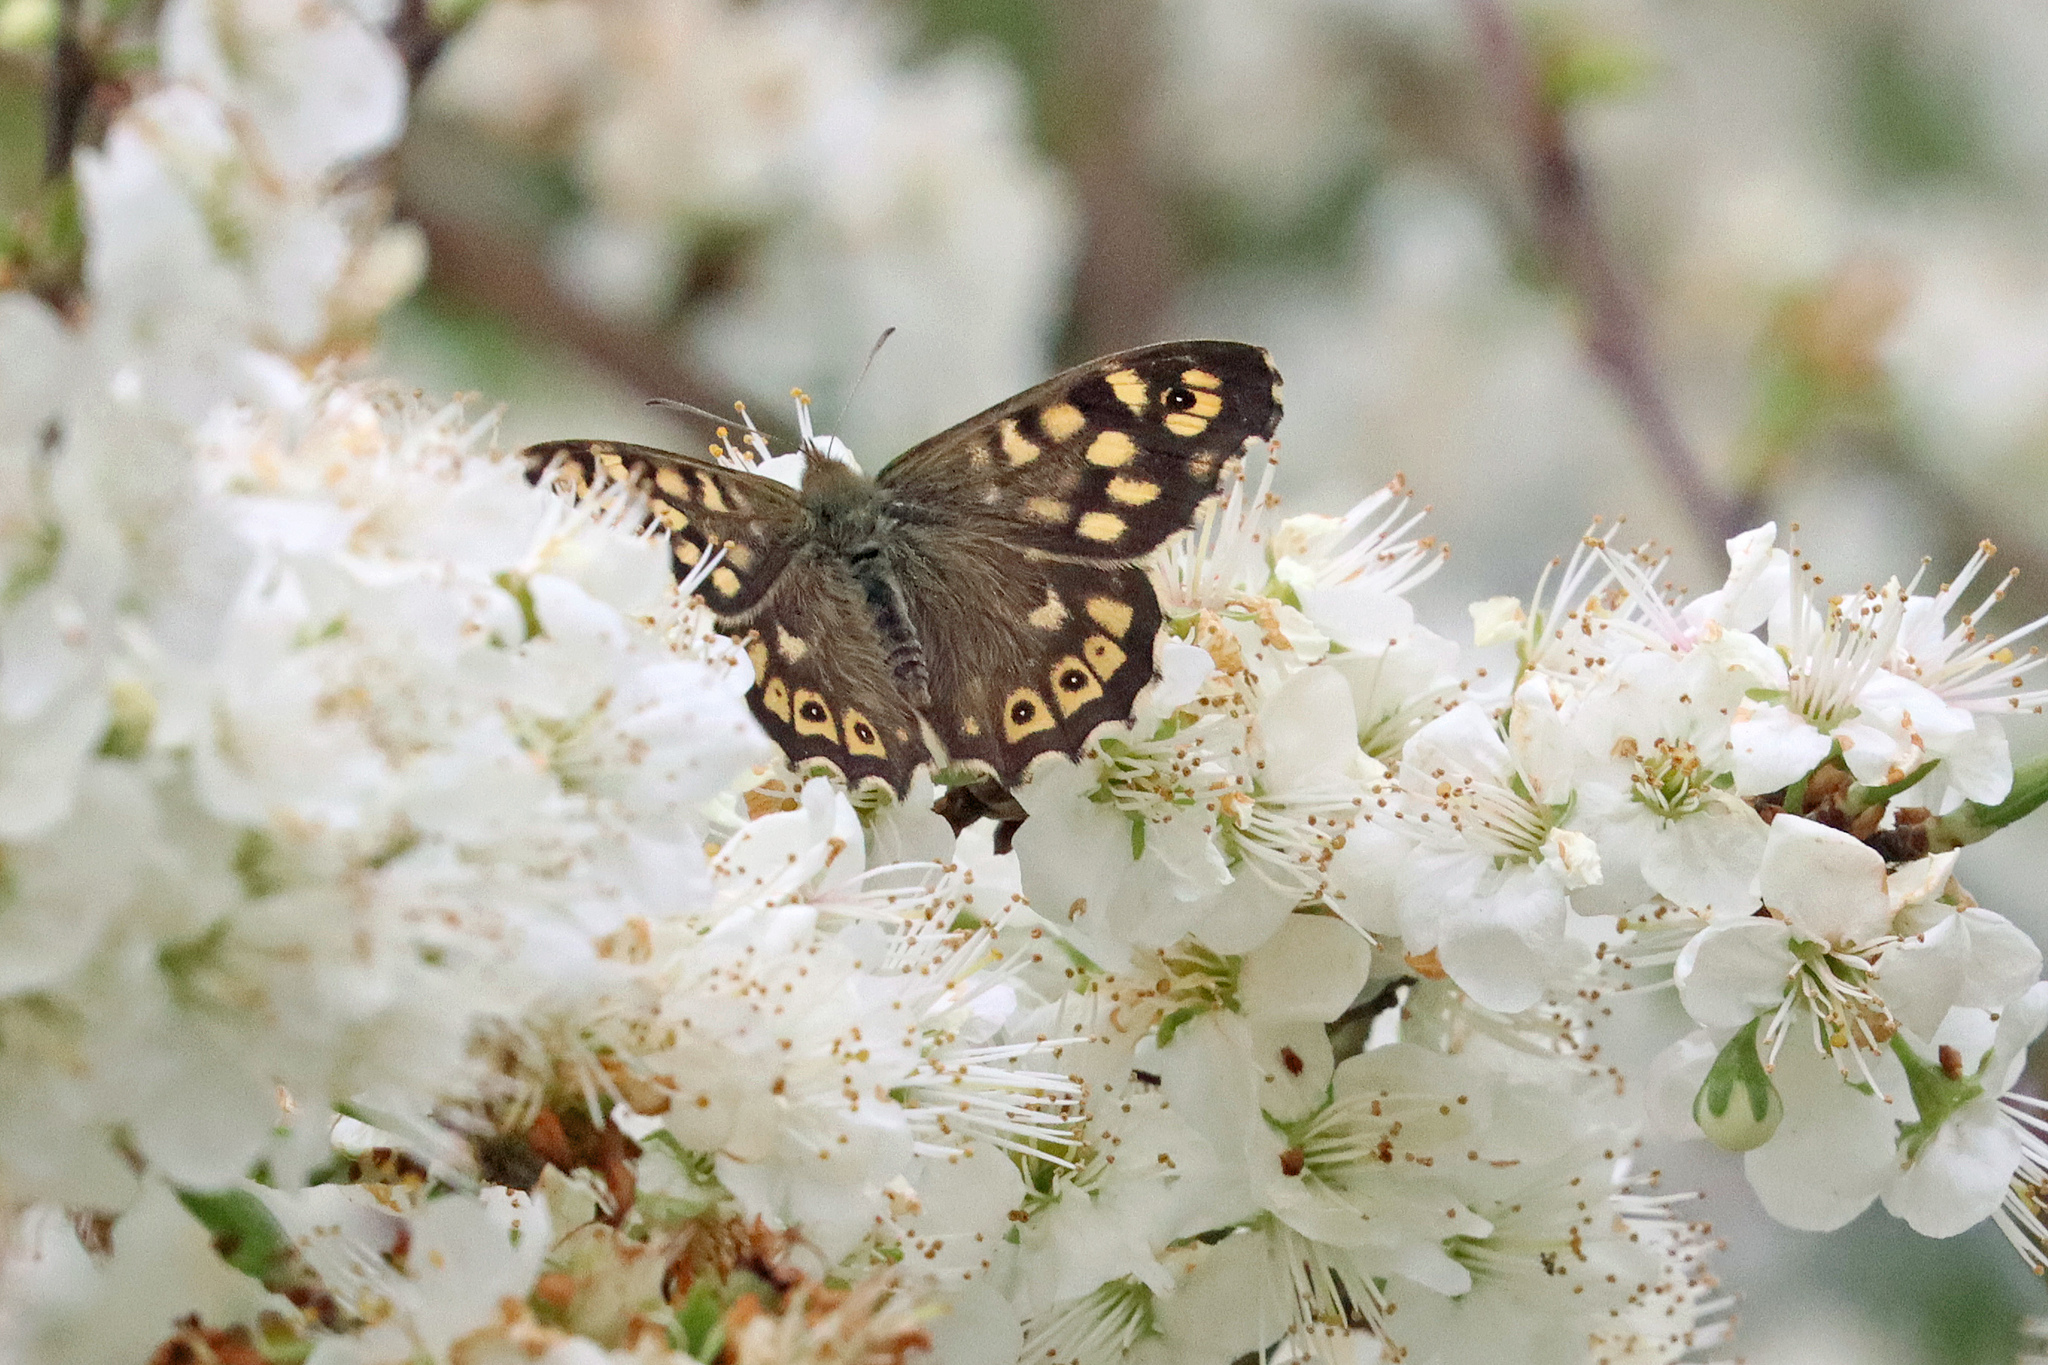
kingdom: Animalia
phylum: Arthropoda
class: Insecta
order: Lepidoptera
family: Nymphalidae
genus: Pararge
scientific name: Pararge aegeria
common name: Speckled wood
